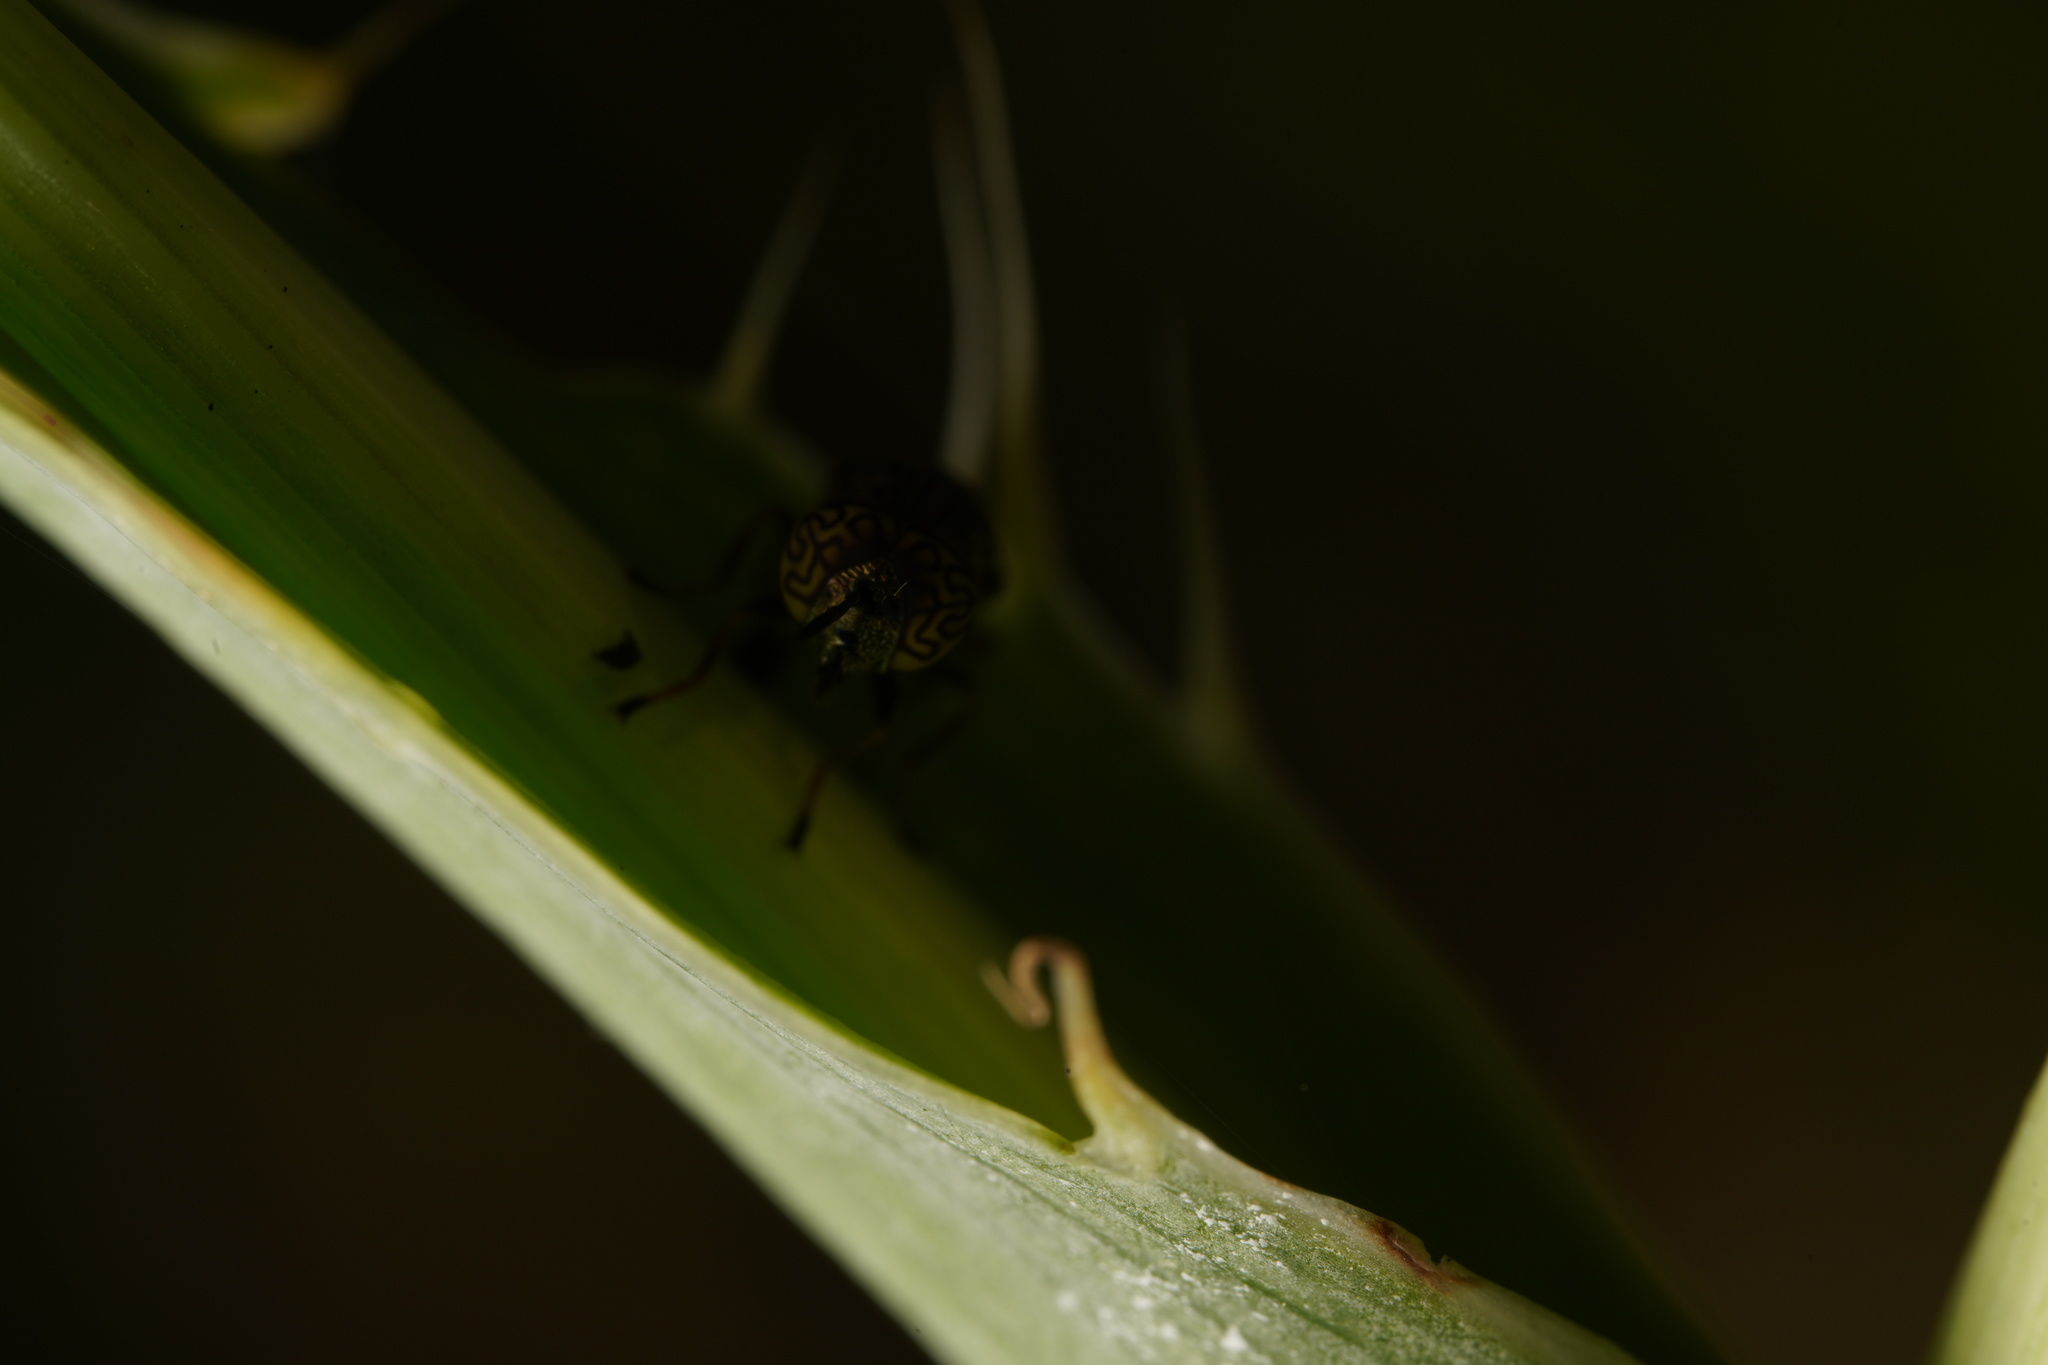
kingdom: Animalia
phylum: Arthropoda
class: Insecta
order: Diptera
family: Syrphidae
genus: Orthonevra
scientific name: Orthonevra nitida
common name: Wavy mucksucker
